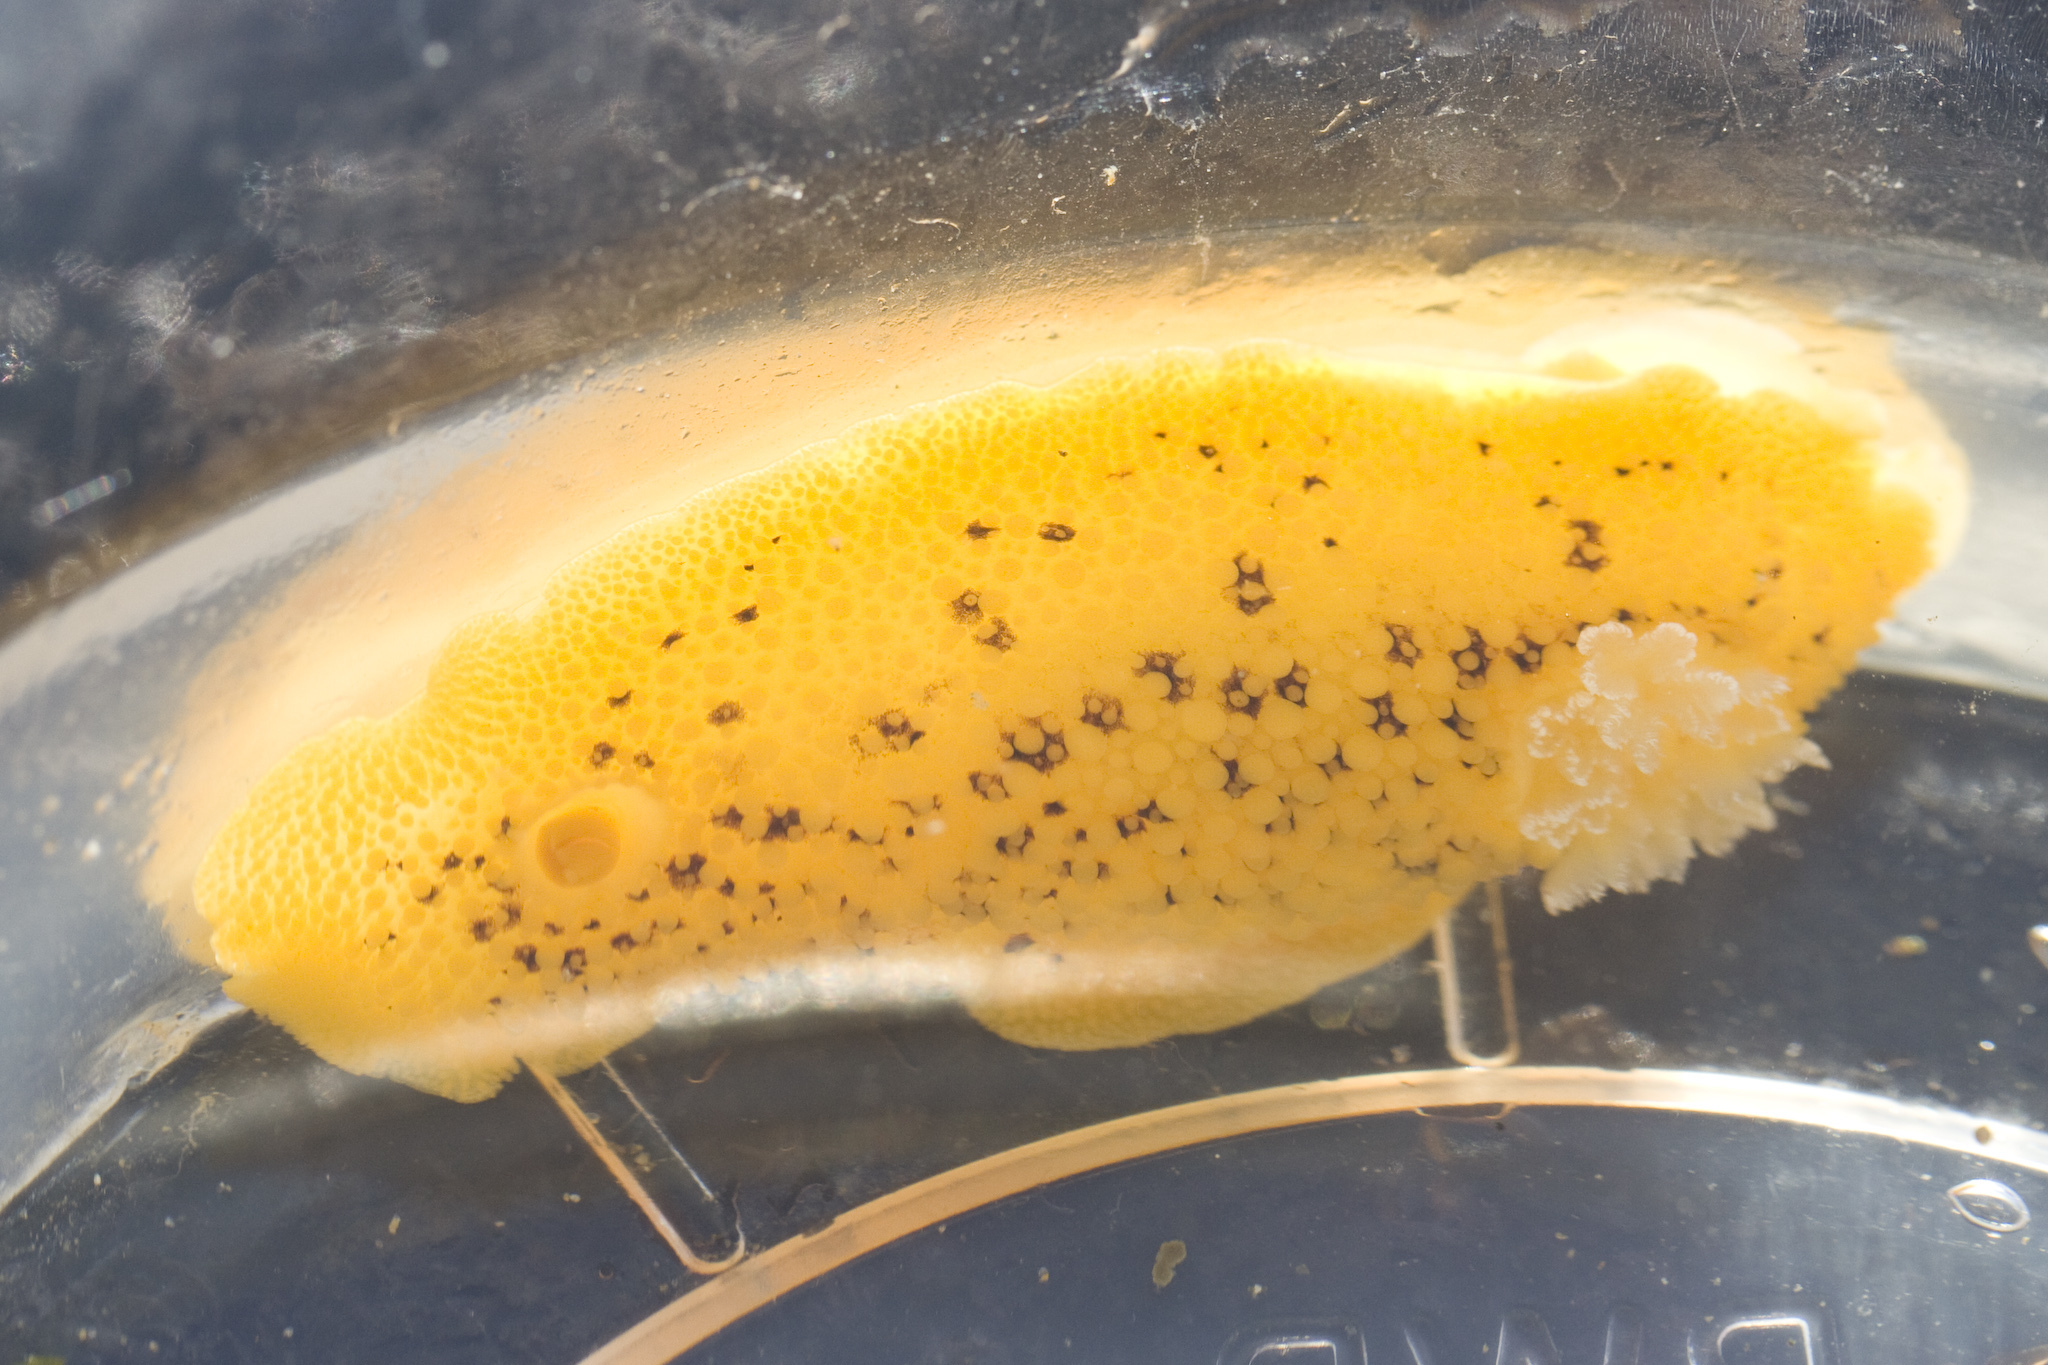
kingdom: Animalia
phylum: Mollusca
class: Gastropoda
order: Nudibranchia
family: Discodorididae
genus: Peltodoris
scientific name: Peltodoris nobilis
